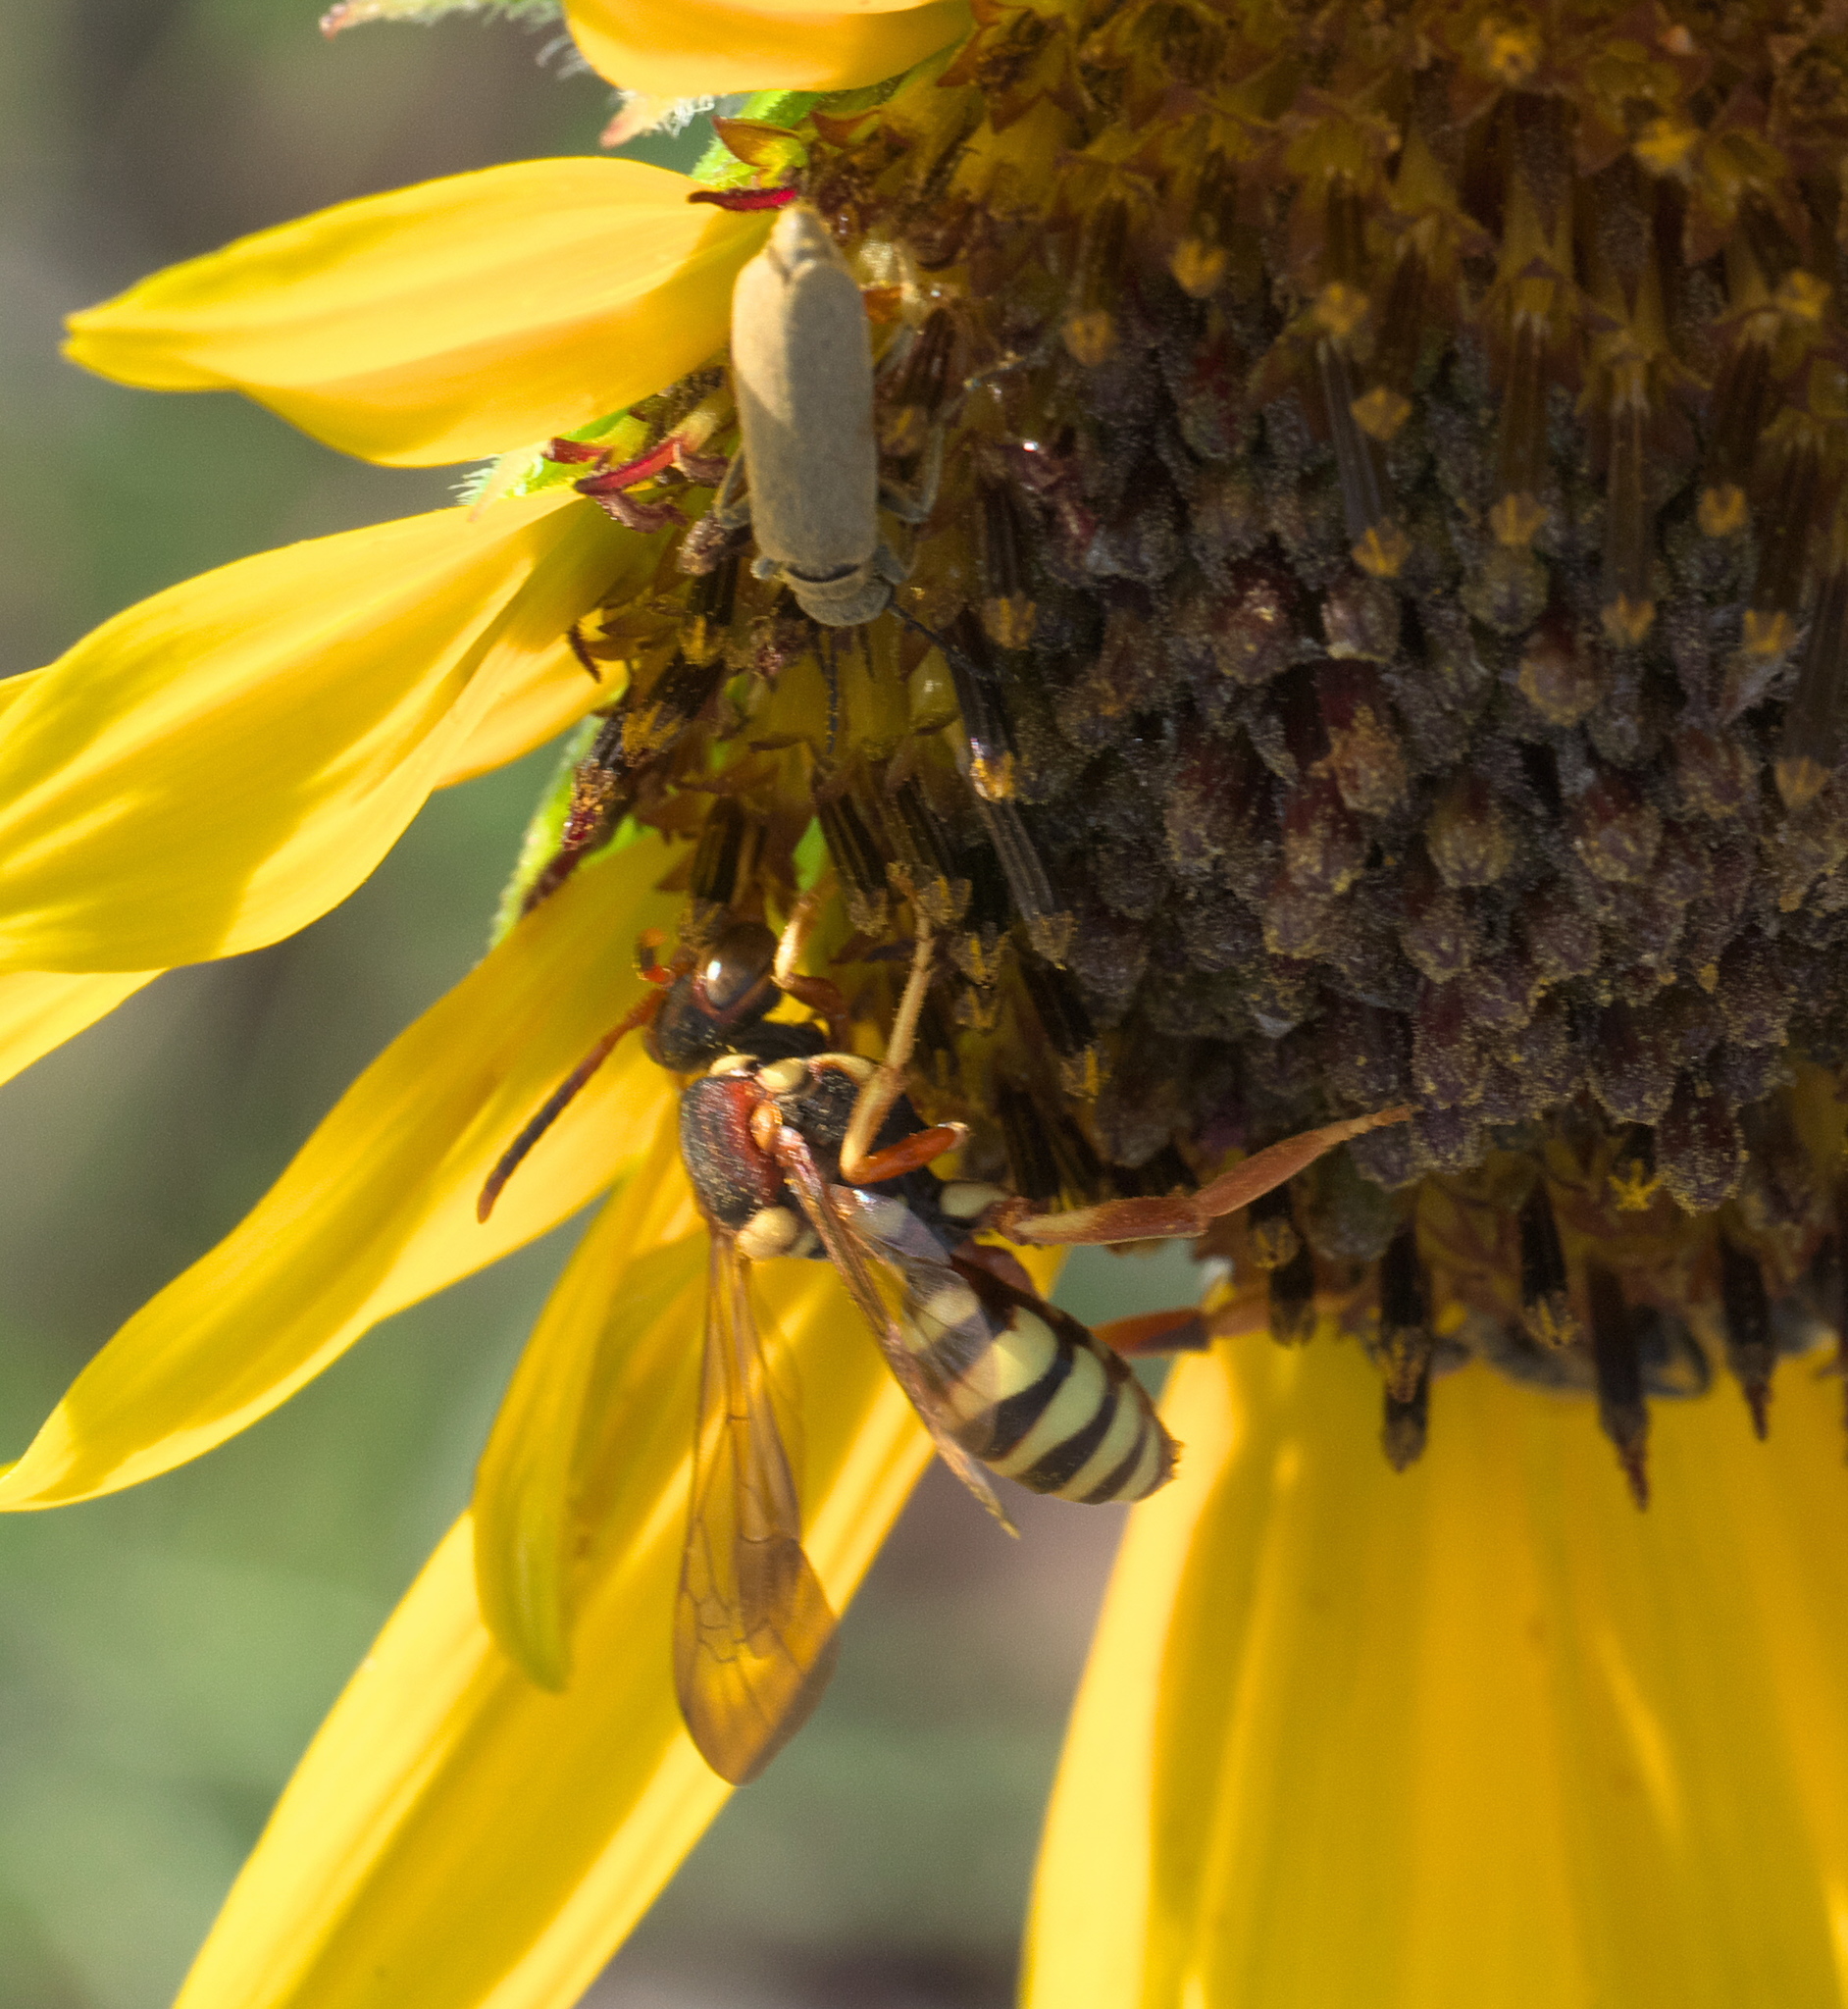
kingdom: Animalia
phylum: Arthropoda
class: Insecta
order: Hymenoptera
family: Apidae
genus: Nomada
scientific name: Nomada
